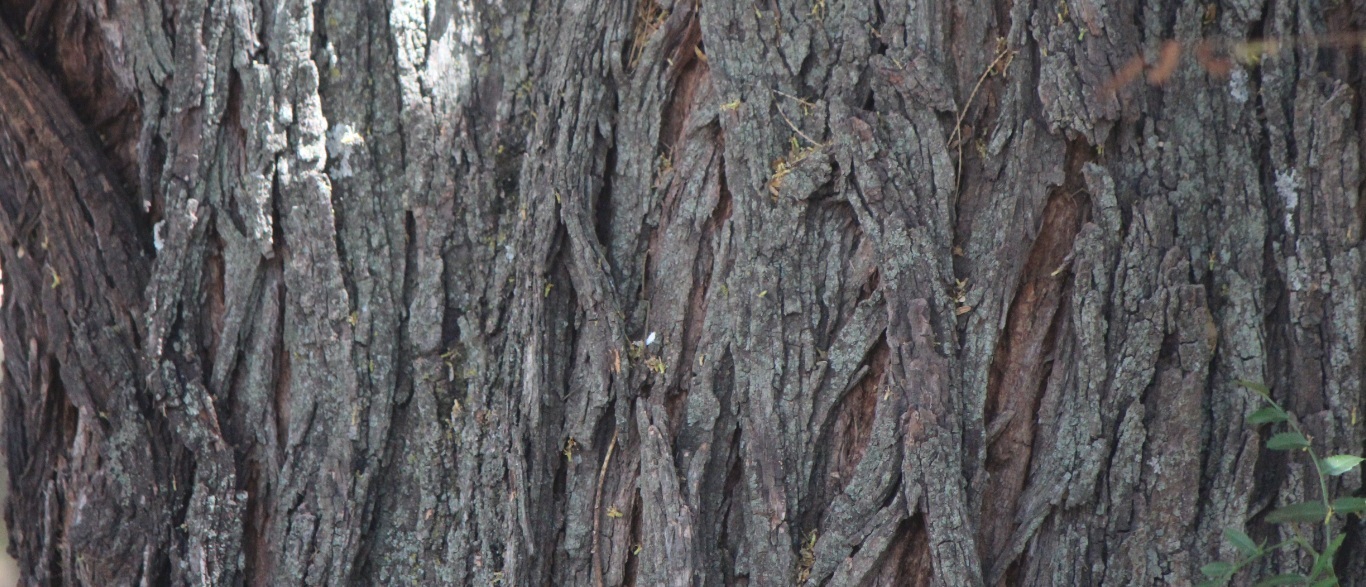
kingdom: Plantae
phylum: Tracheophyta
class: Magnoliopsida
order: Fabales
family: Fabaceae
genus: Prosopis
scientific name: Prosopis laevigata
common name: Smooth mesquite
